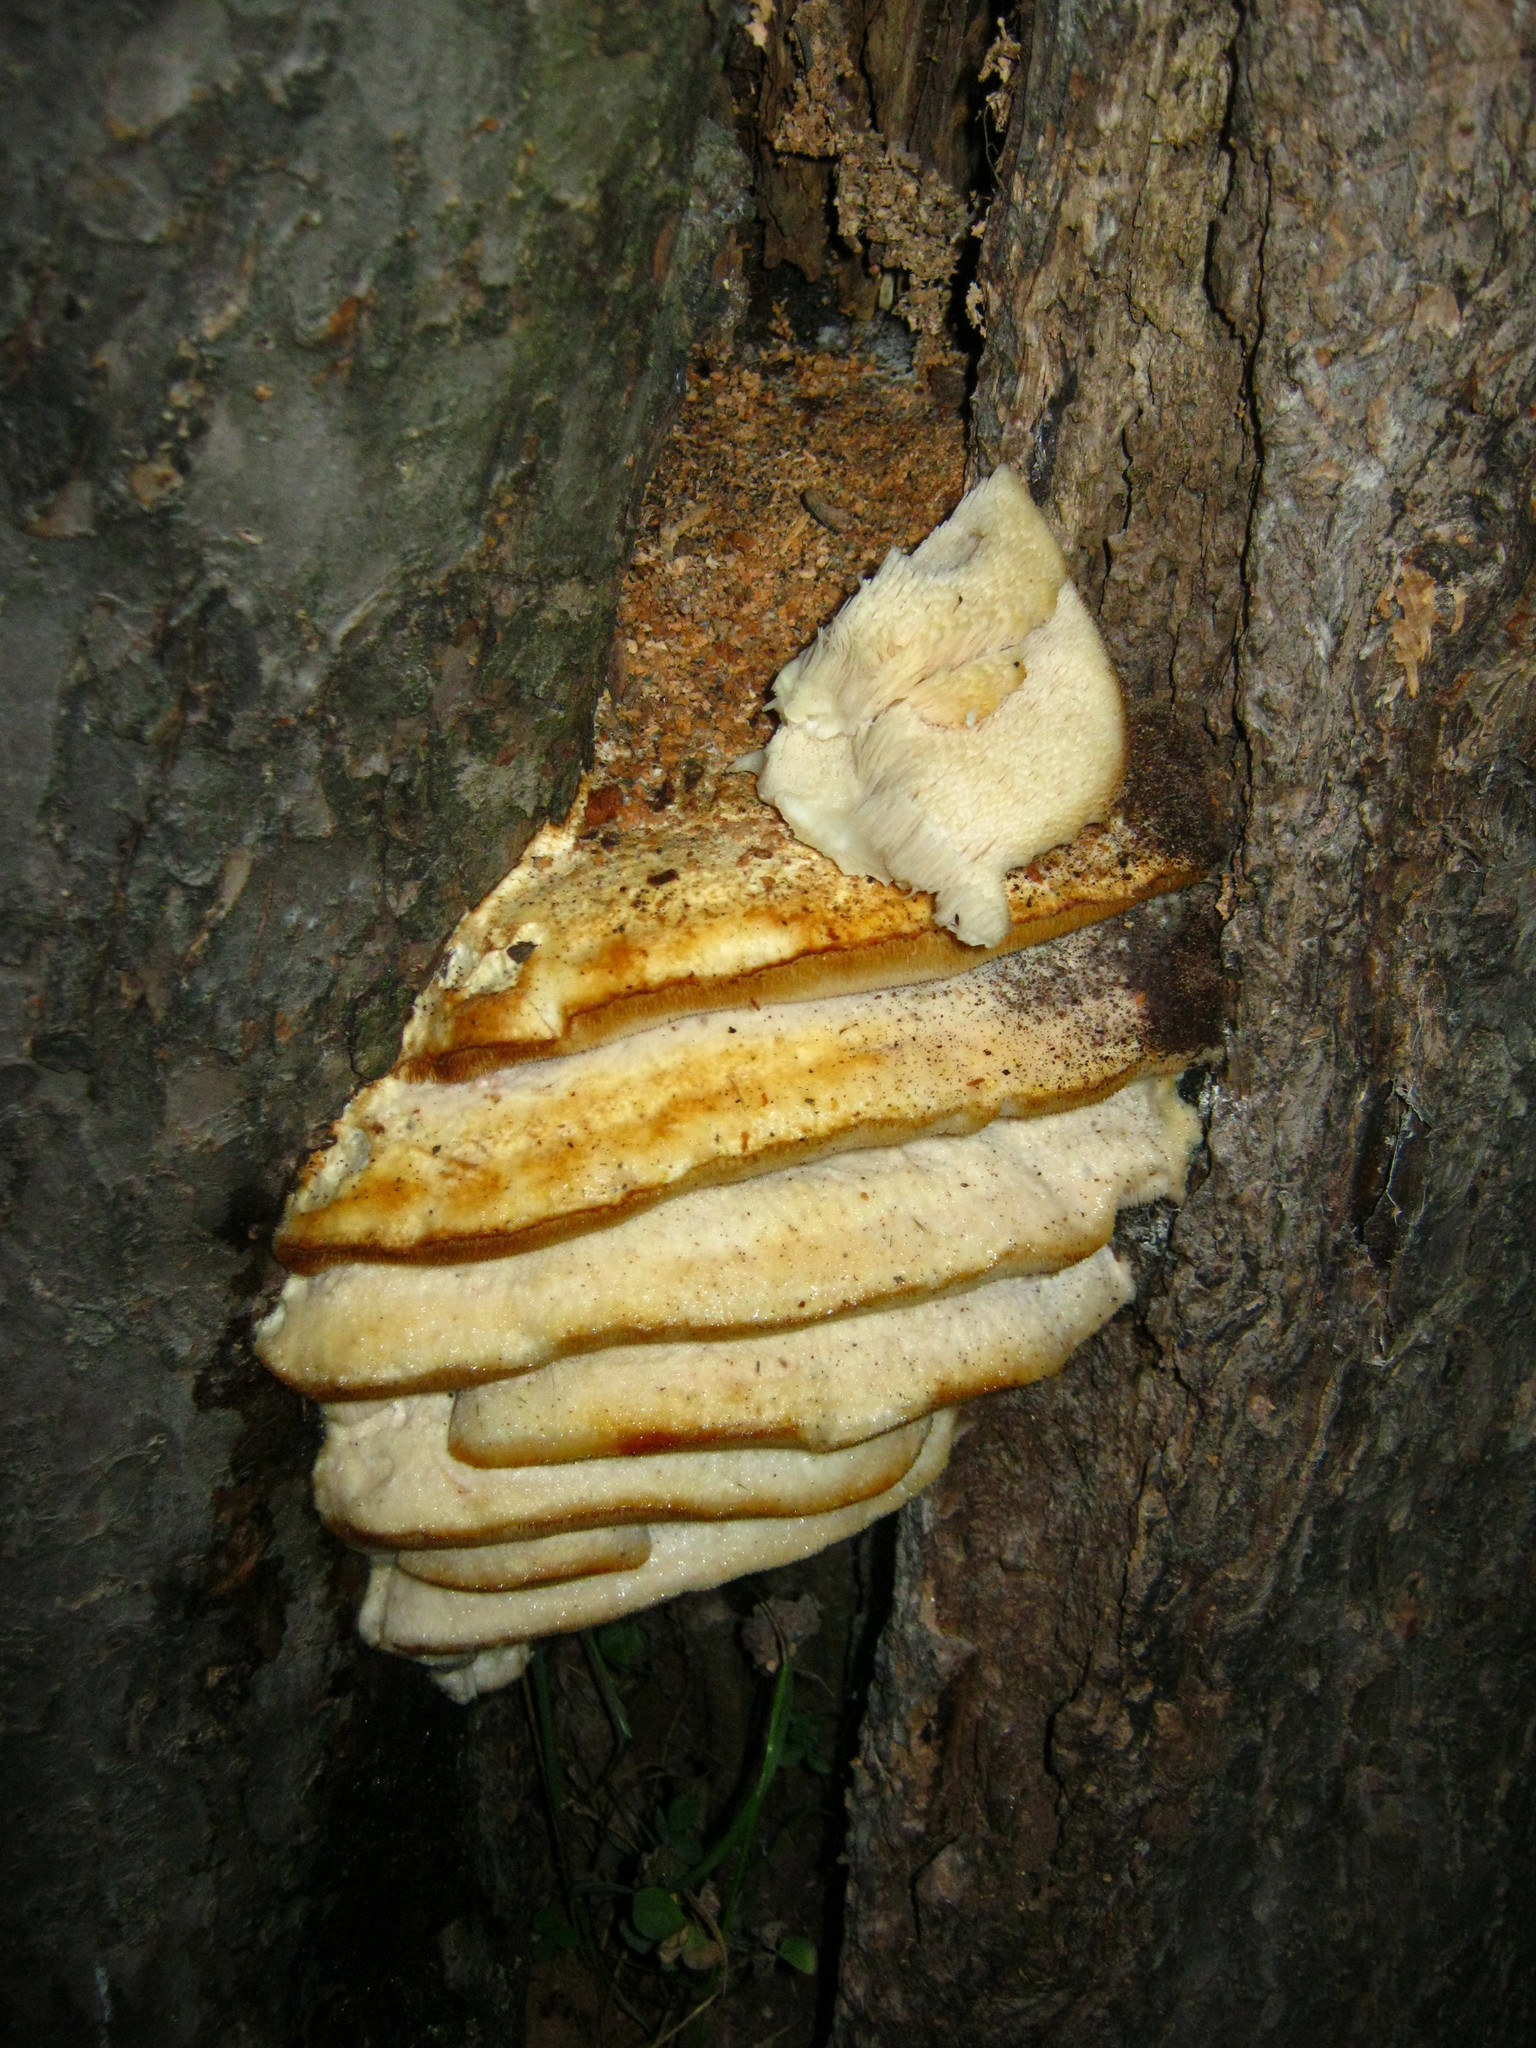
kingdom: Fungi
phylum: Basidiomycota
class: Agaricomycetes
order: Polyporales
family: Meruliaceae
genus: Climacodon
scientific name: Climacodon septentrionalis
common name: Northern tooth
